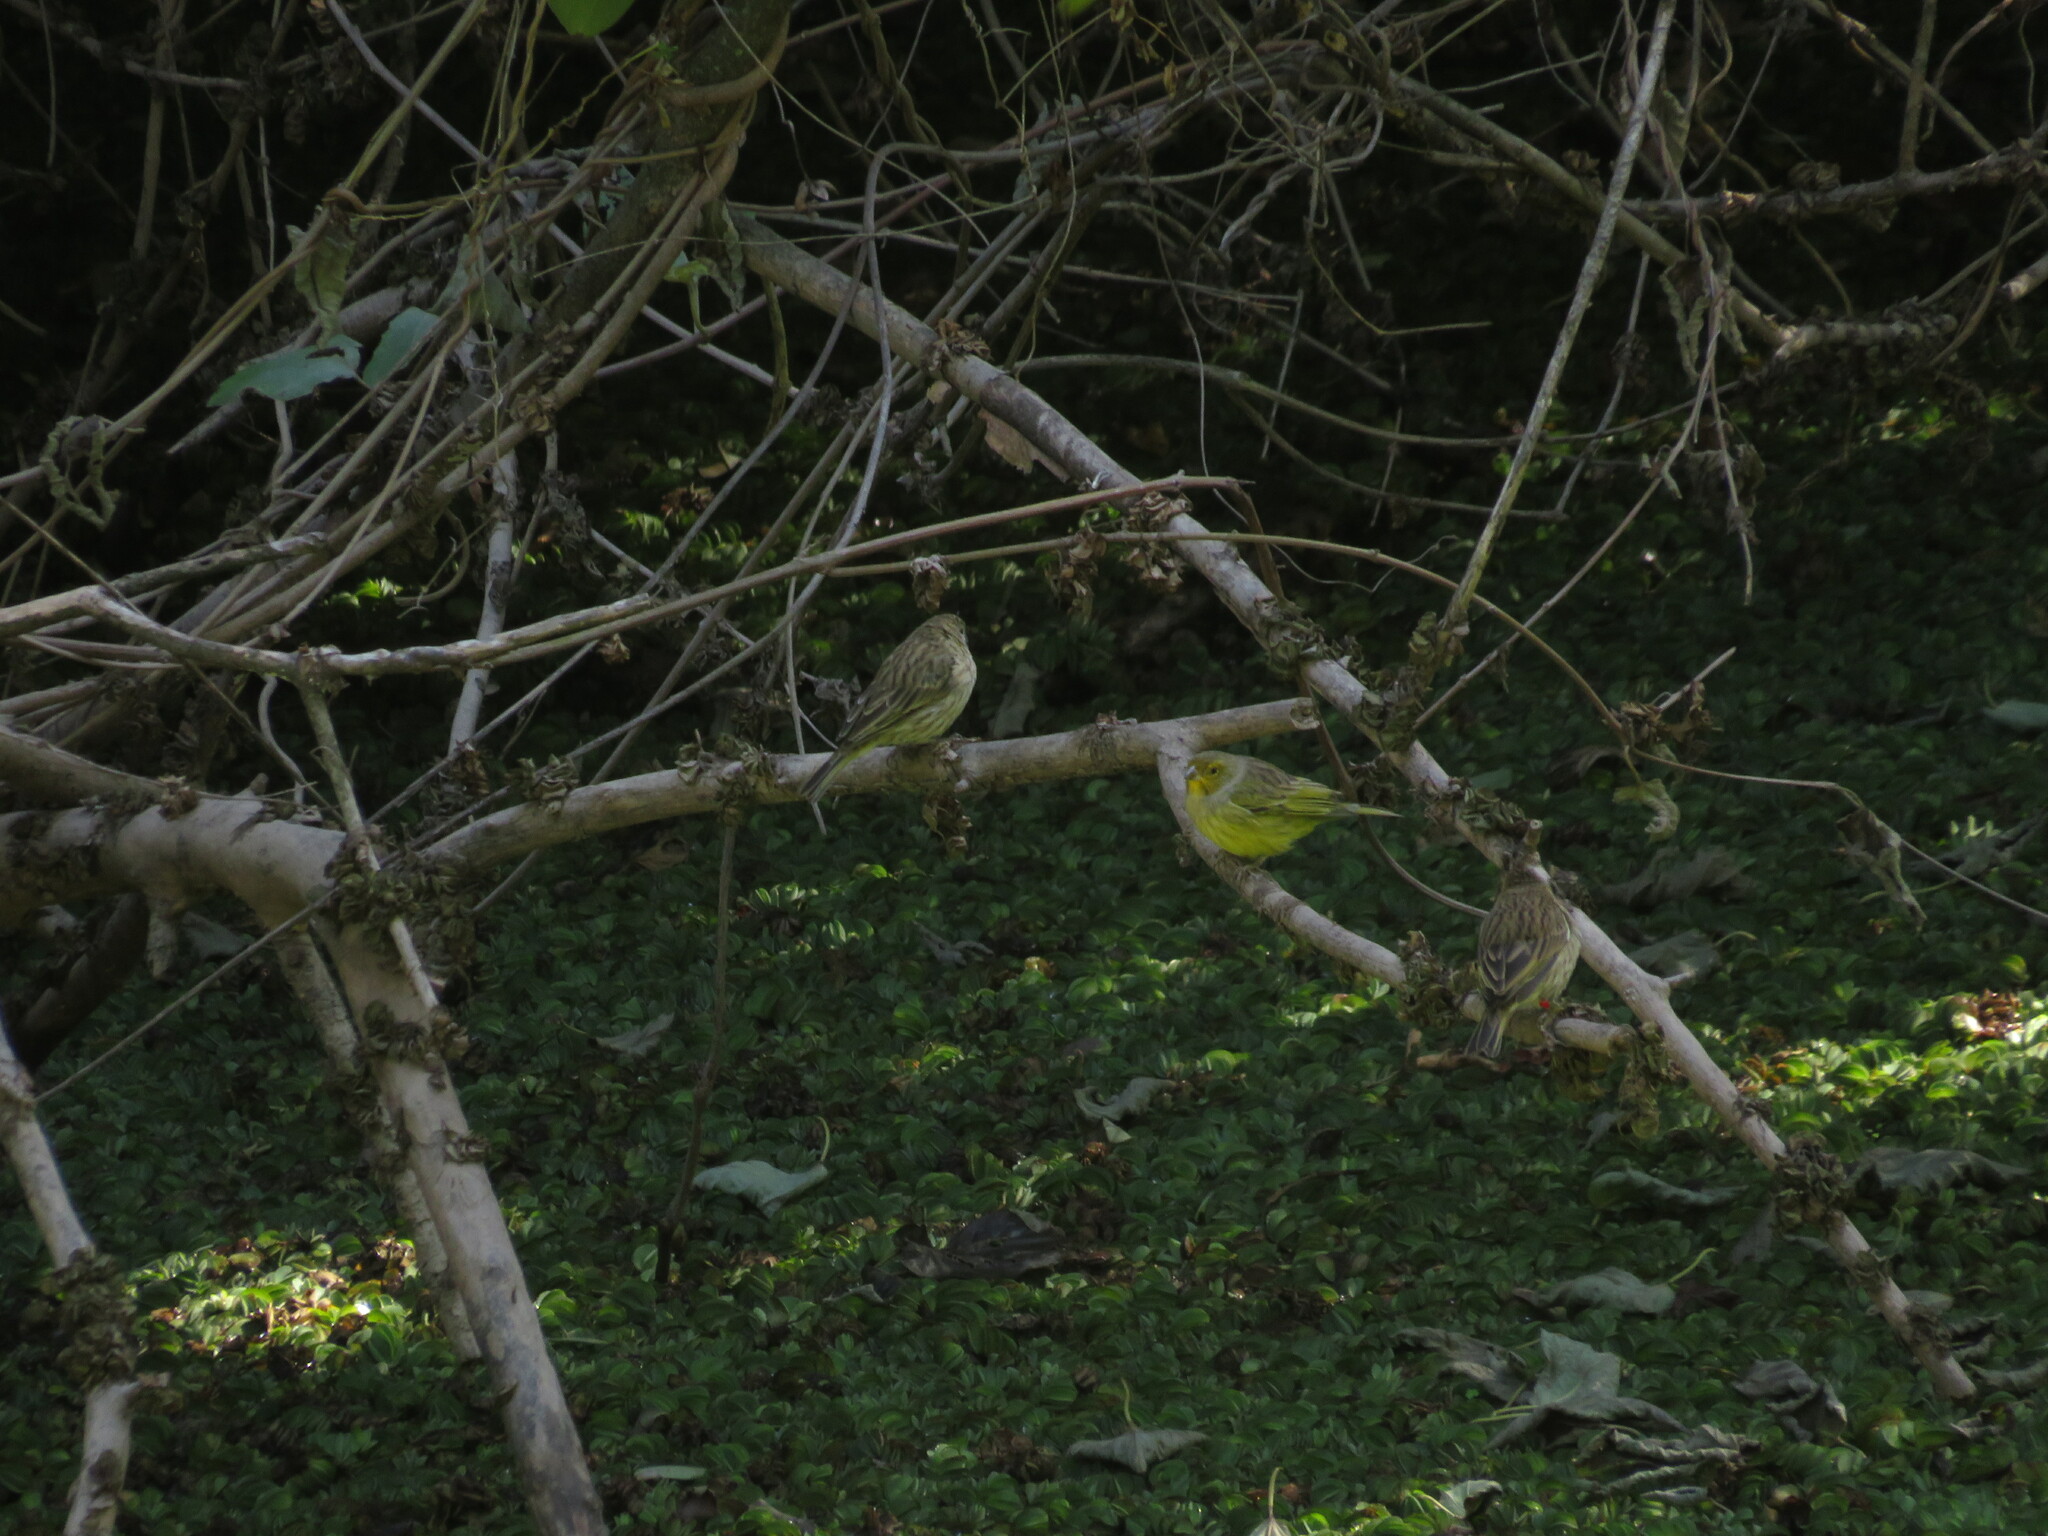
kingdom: Animalia
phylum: Chordata
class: Aves
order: Passeriformes
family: Thraupidae
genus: Sicalis
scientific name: Sicalis flaveola
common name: Saffron finch
